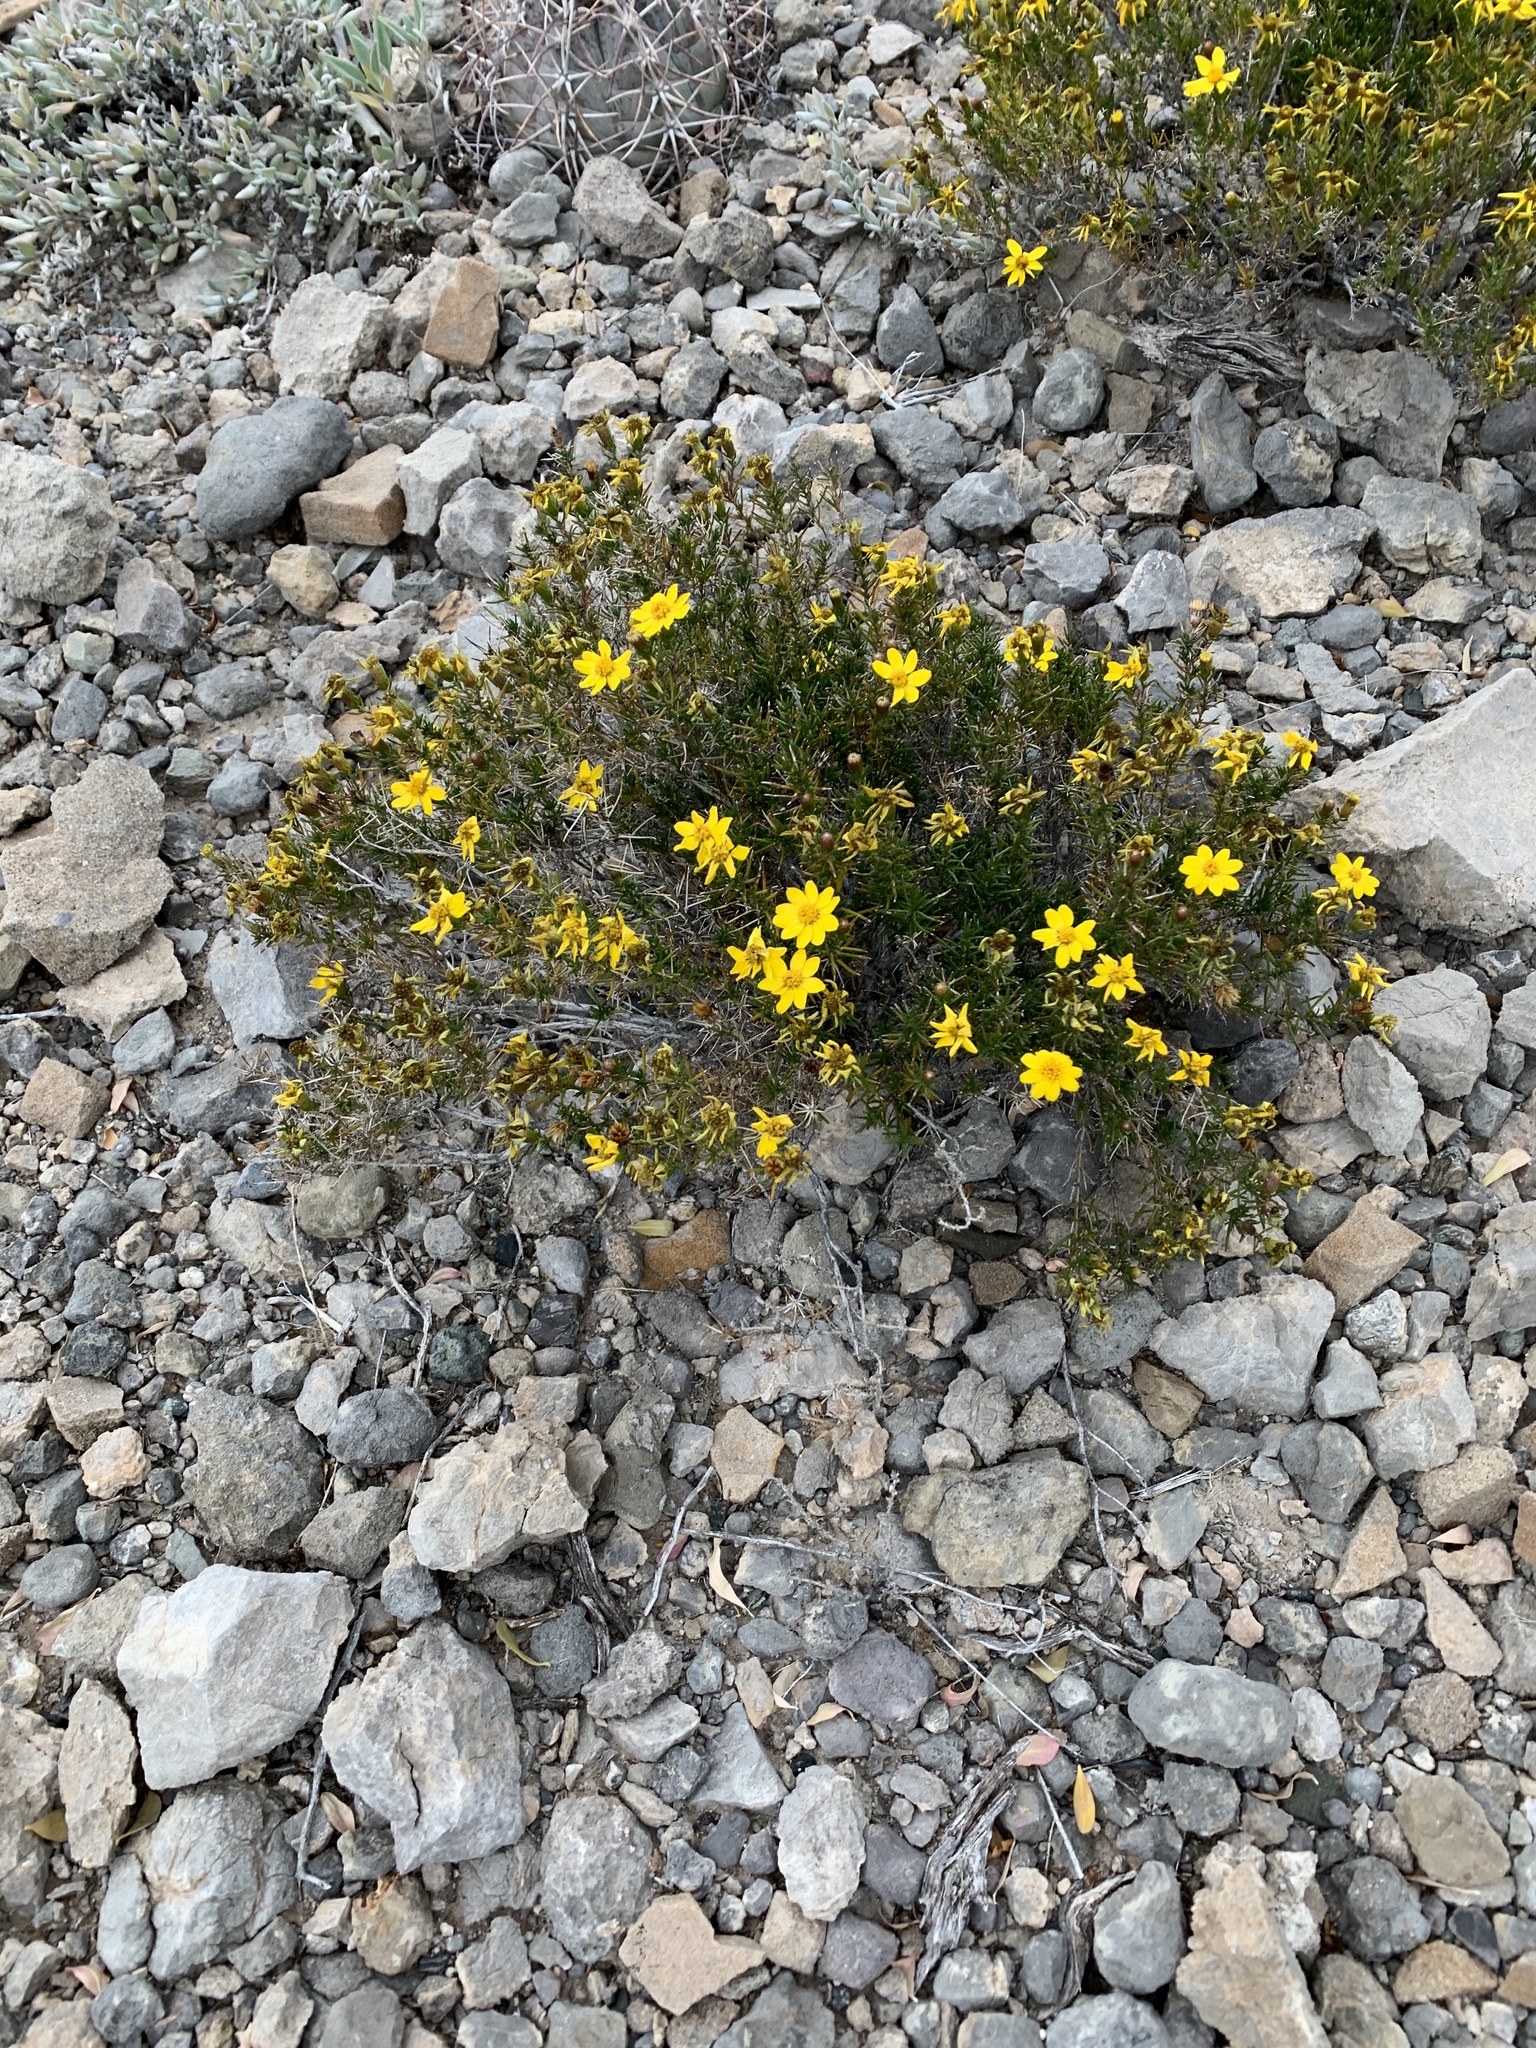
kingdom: Plantae
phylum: Tracheophyta
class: Magnoliopsida
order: Asterales
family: Asteraceae
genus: Thymophylla
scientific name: Thymophylla acerosa
